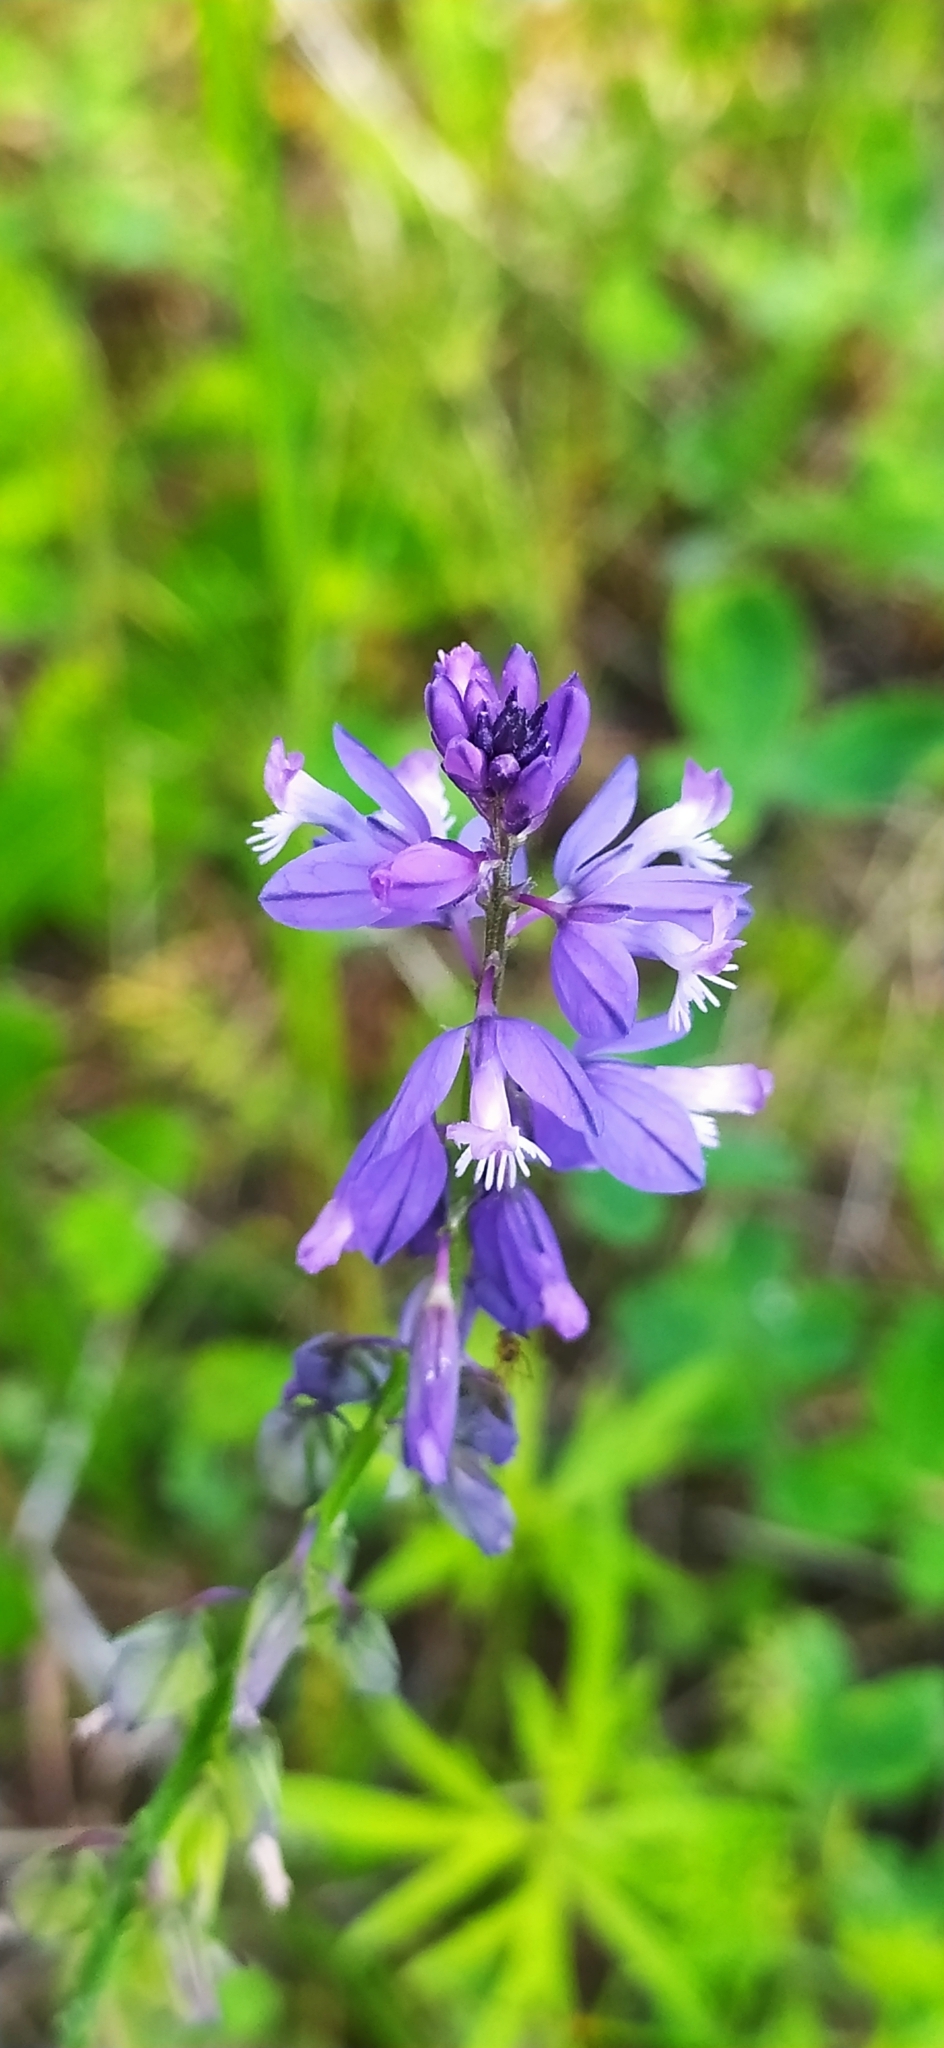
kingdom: Plantae
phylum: Tracheophyta
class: Magnoliopsida
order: Fabales
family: Polygalaceae
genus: Polygala
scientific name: Polygala comosa
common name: Tufted milkwort
